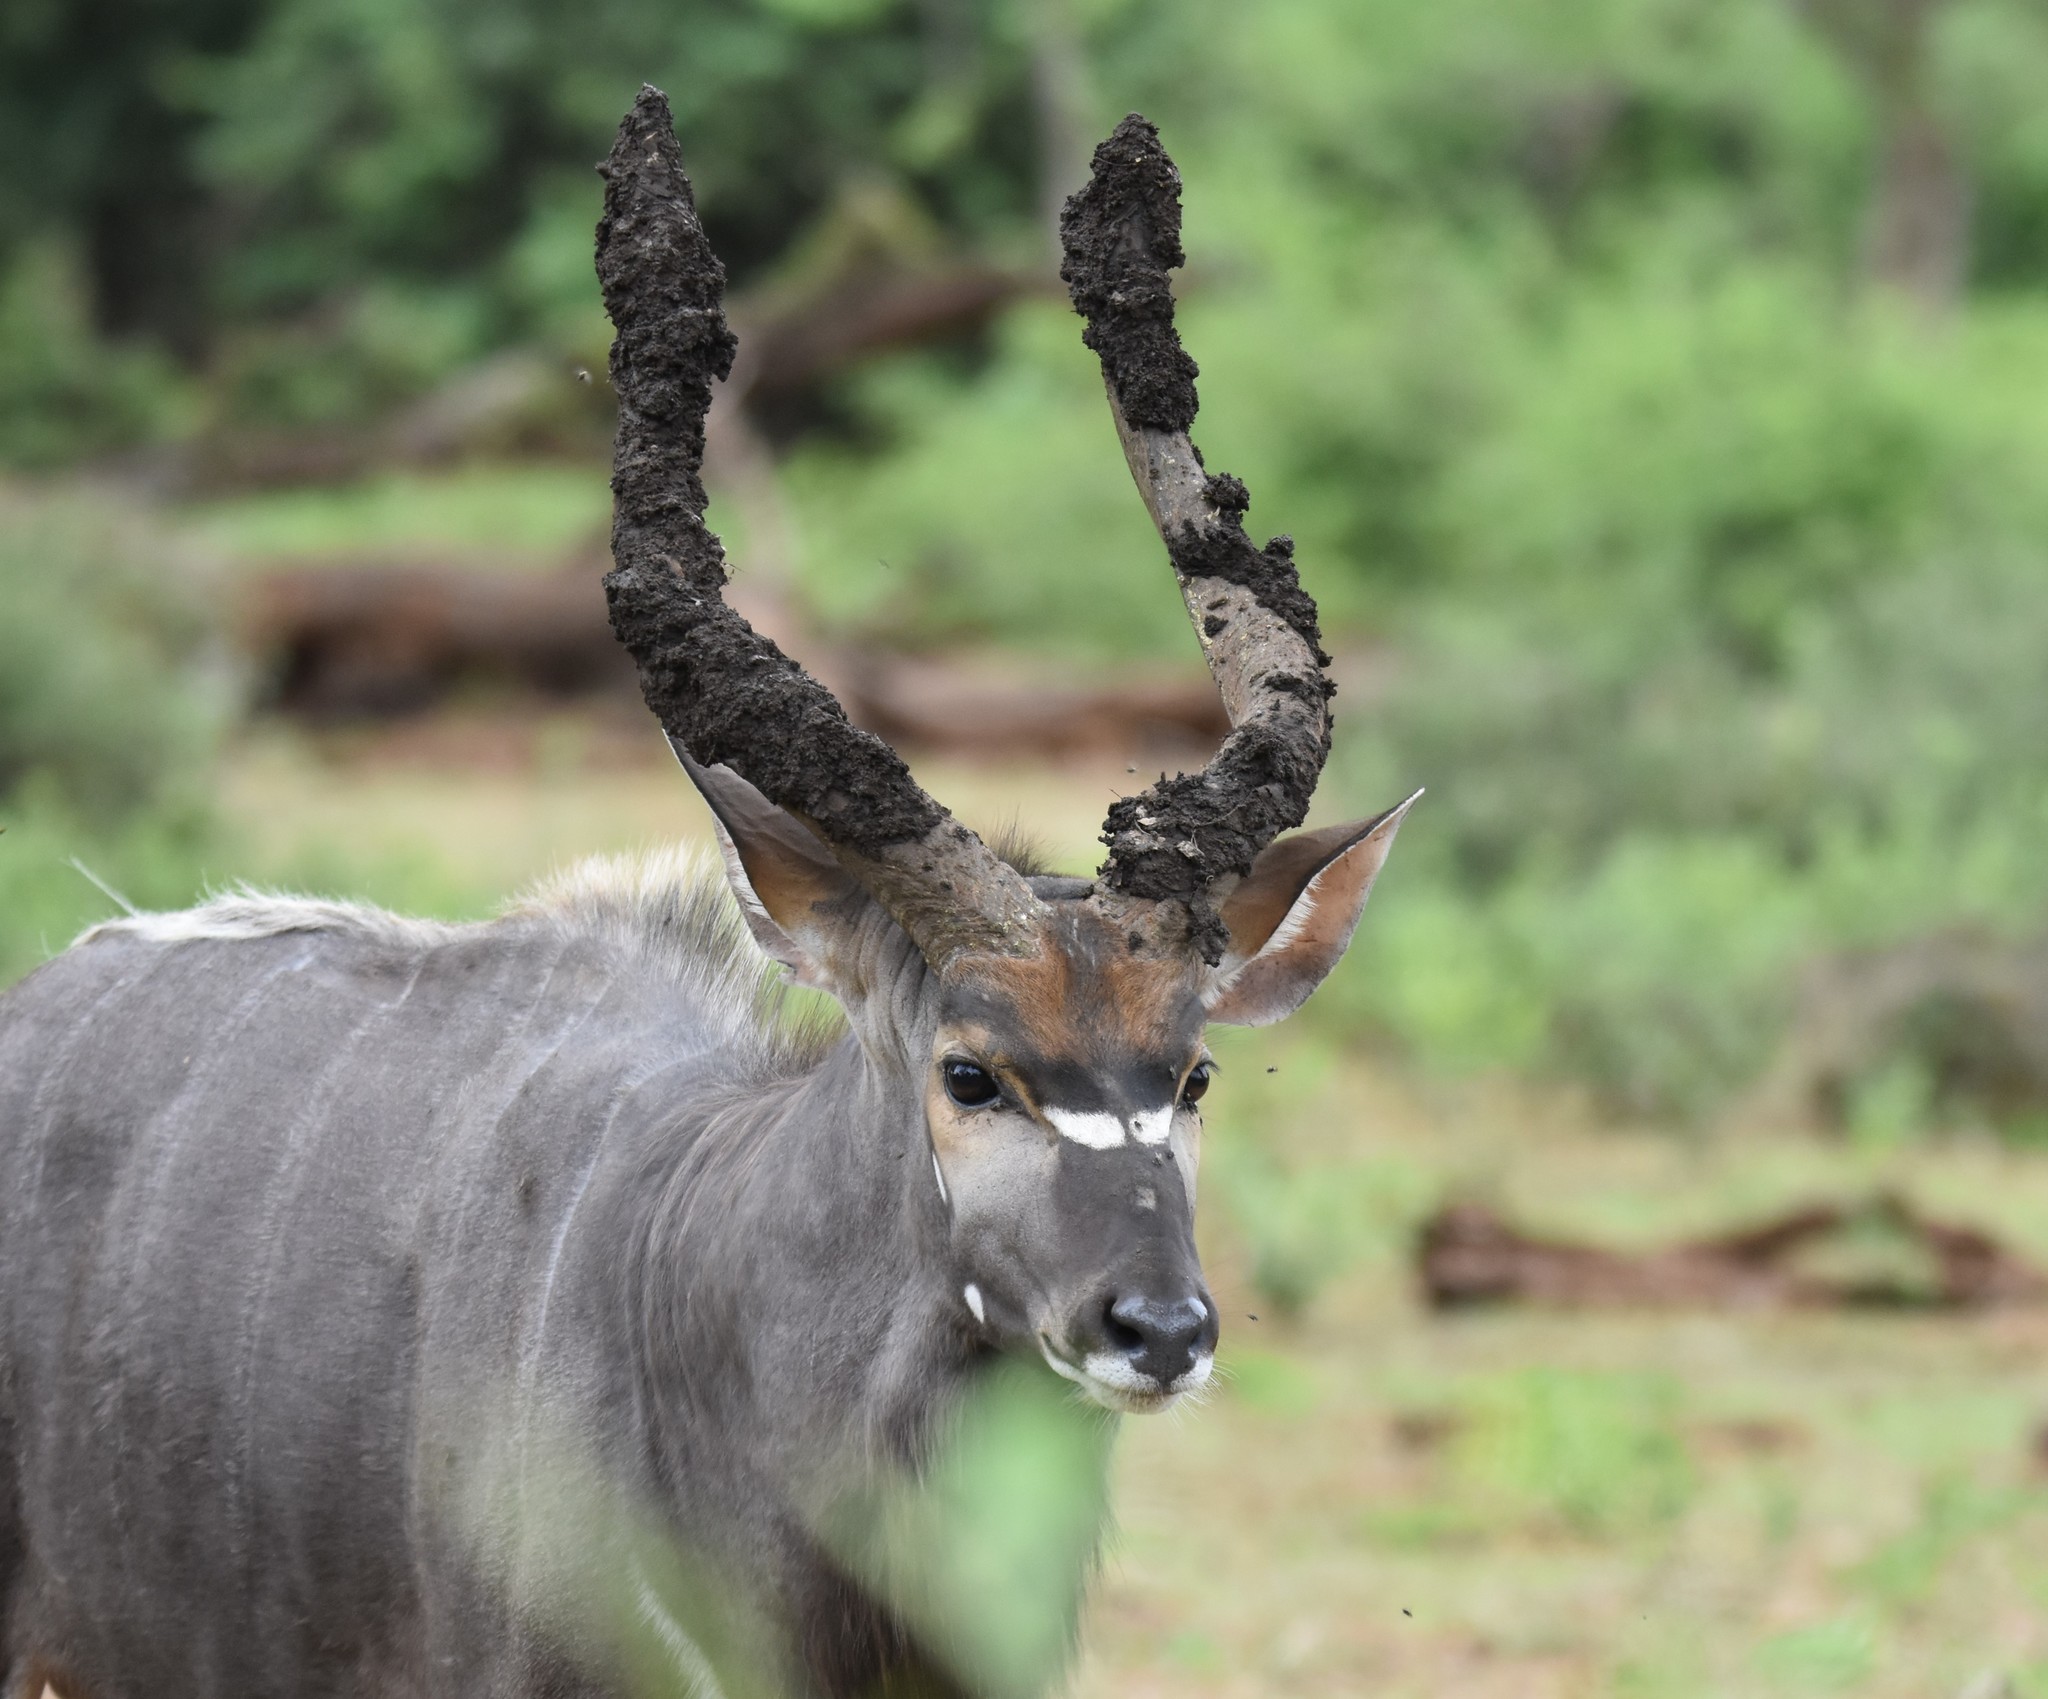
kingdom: Animalia
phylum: Chordata
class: Mammalia
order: Artiodactyla
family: Bovidae
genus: Tragelaphus
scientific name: Tragelaphus angasii
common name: Nyala
